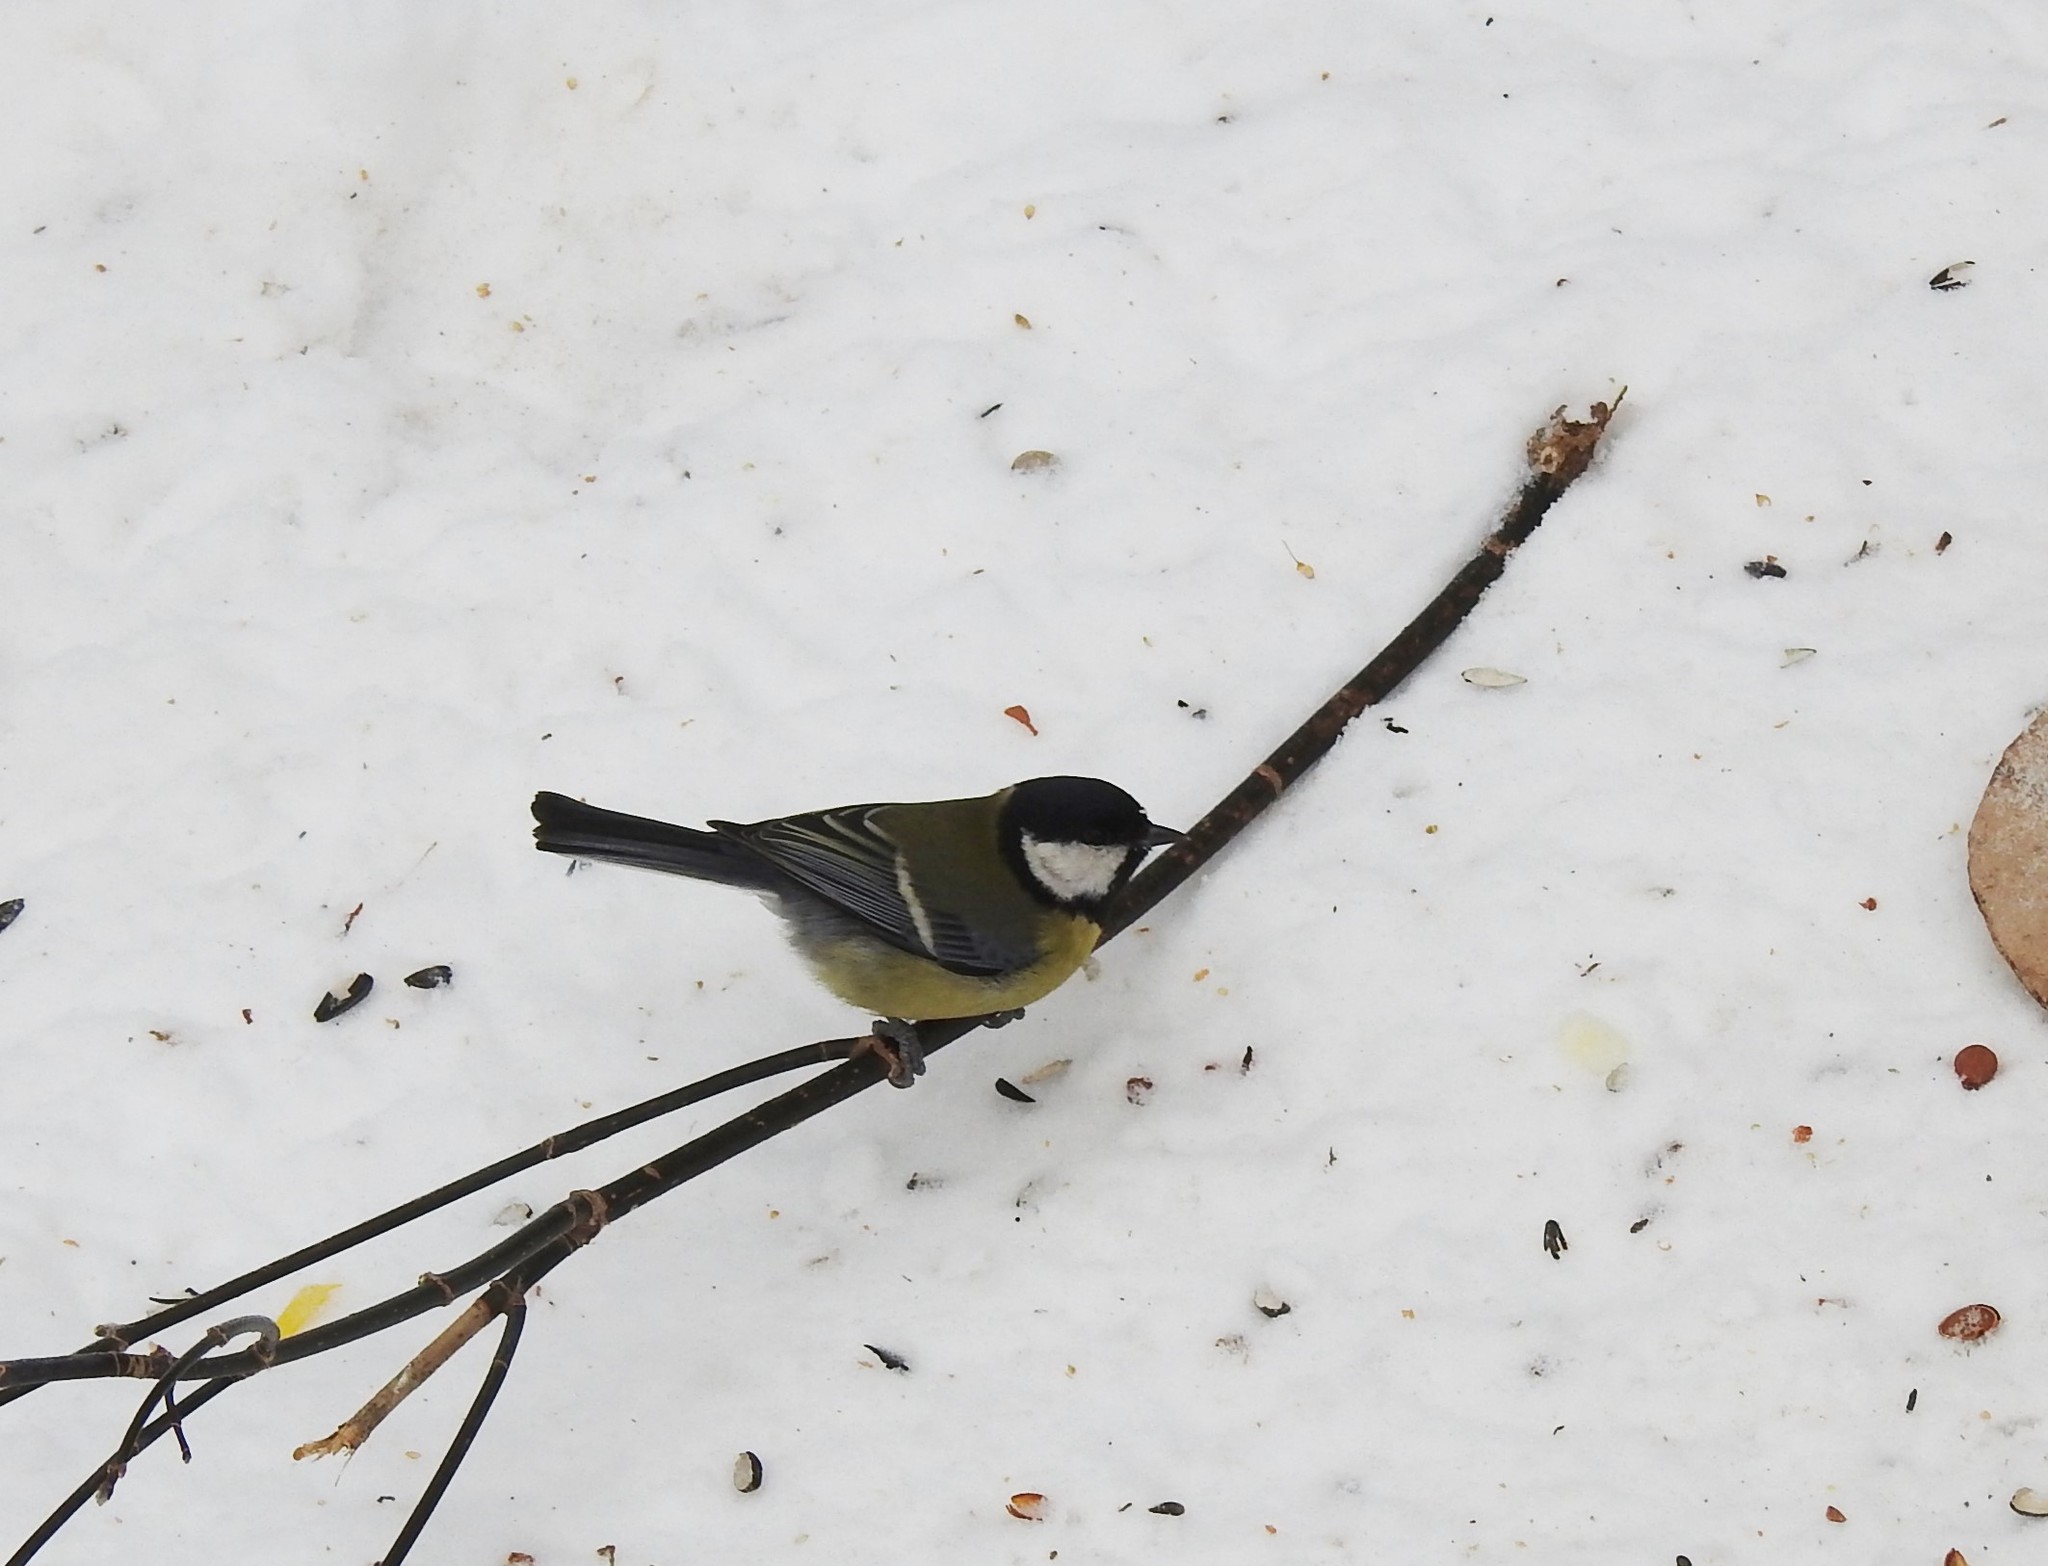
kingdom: Animalia
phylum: Chordata
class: Aves
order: Passeriformes
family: Paridae
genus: Parus
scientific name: Parus major
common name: Great tit
